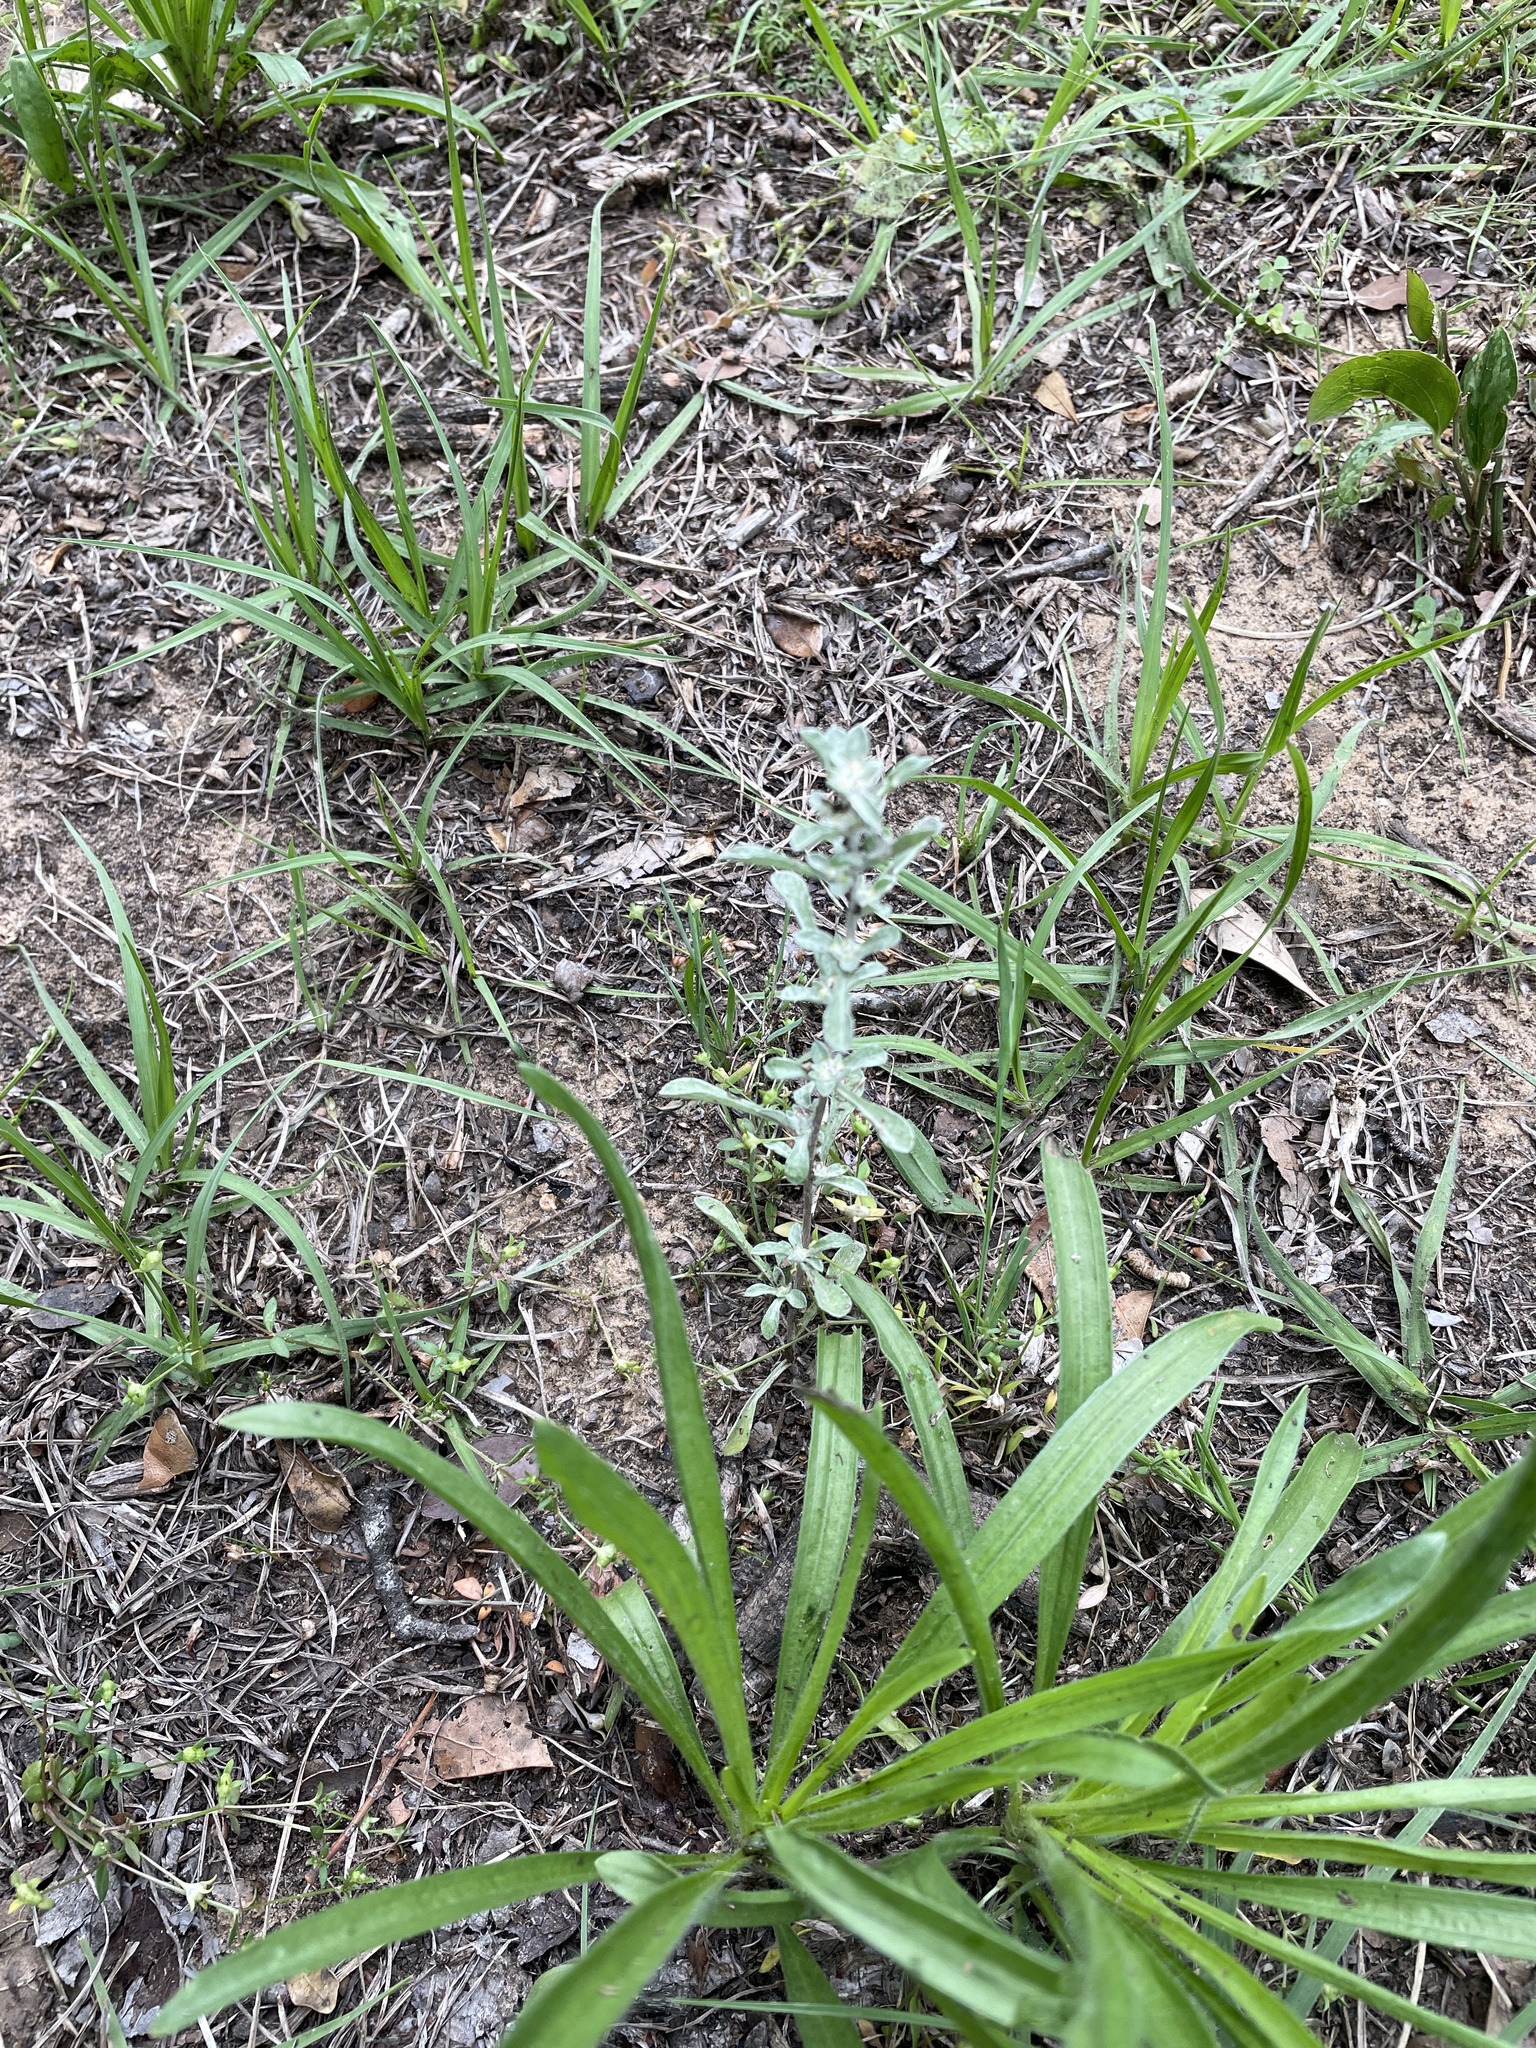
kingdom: Plantae
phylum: Tracheophyta
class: Magnoliopsida
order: Asterales
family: Asteraceae
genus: Diaperia
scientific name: Diaperia candida
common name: Silver rabbit-tobacco
